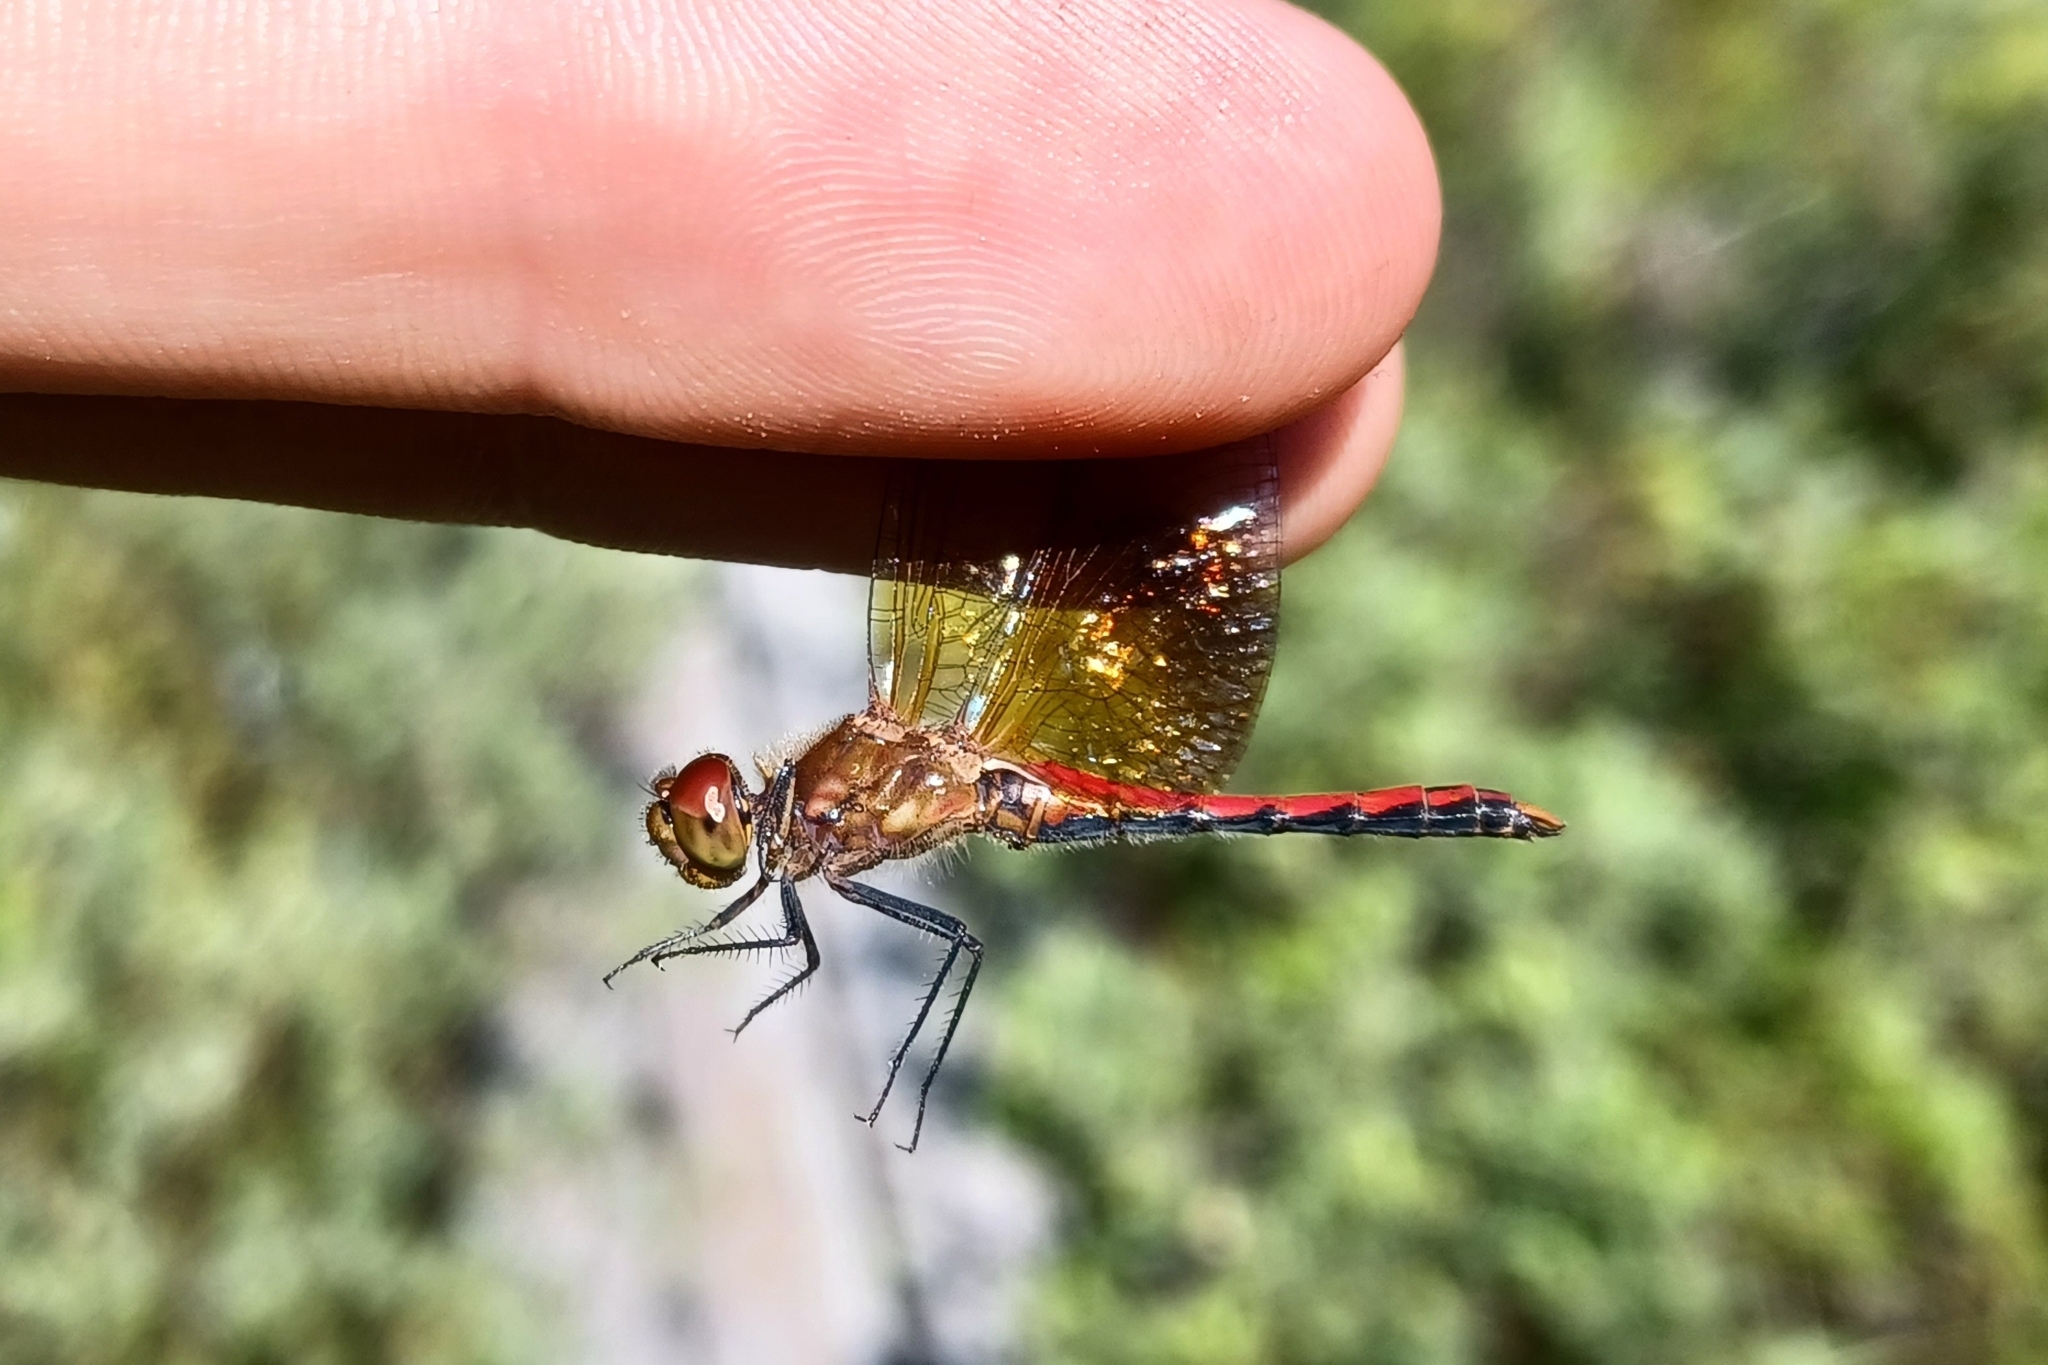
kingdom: Animalia
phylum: Arthropoda
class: Insecta
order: Odonata
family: Libellulidae
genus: Sympetrum
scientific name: Sympetrum semicinctum
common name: Band-winged meadowhawk
